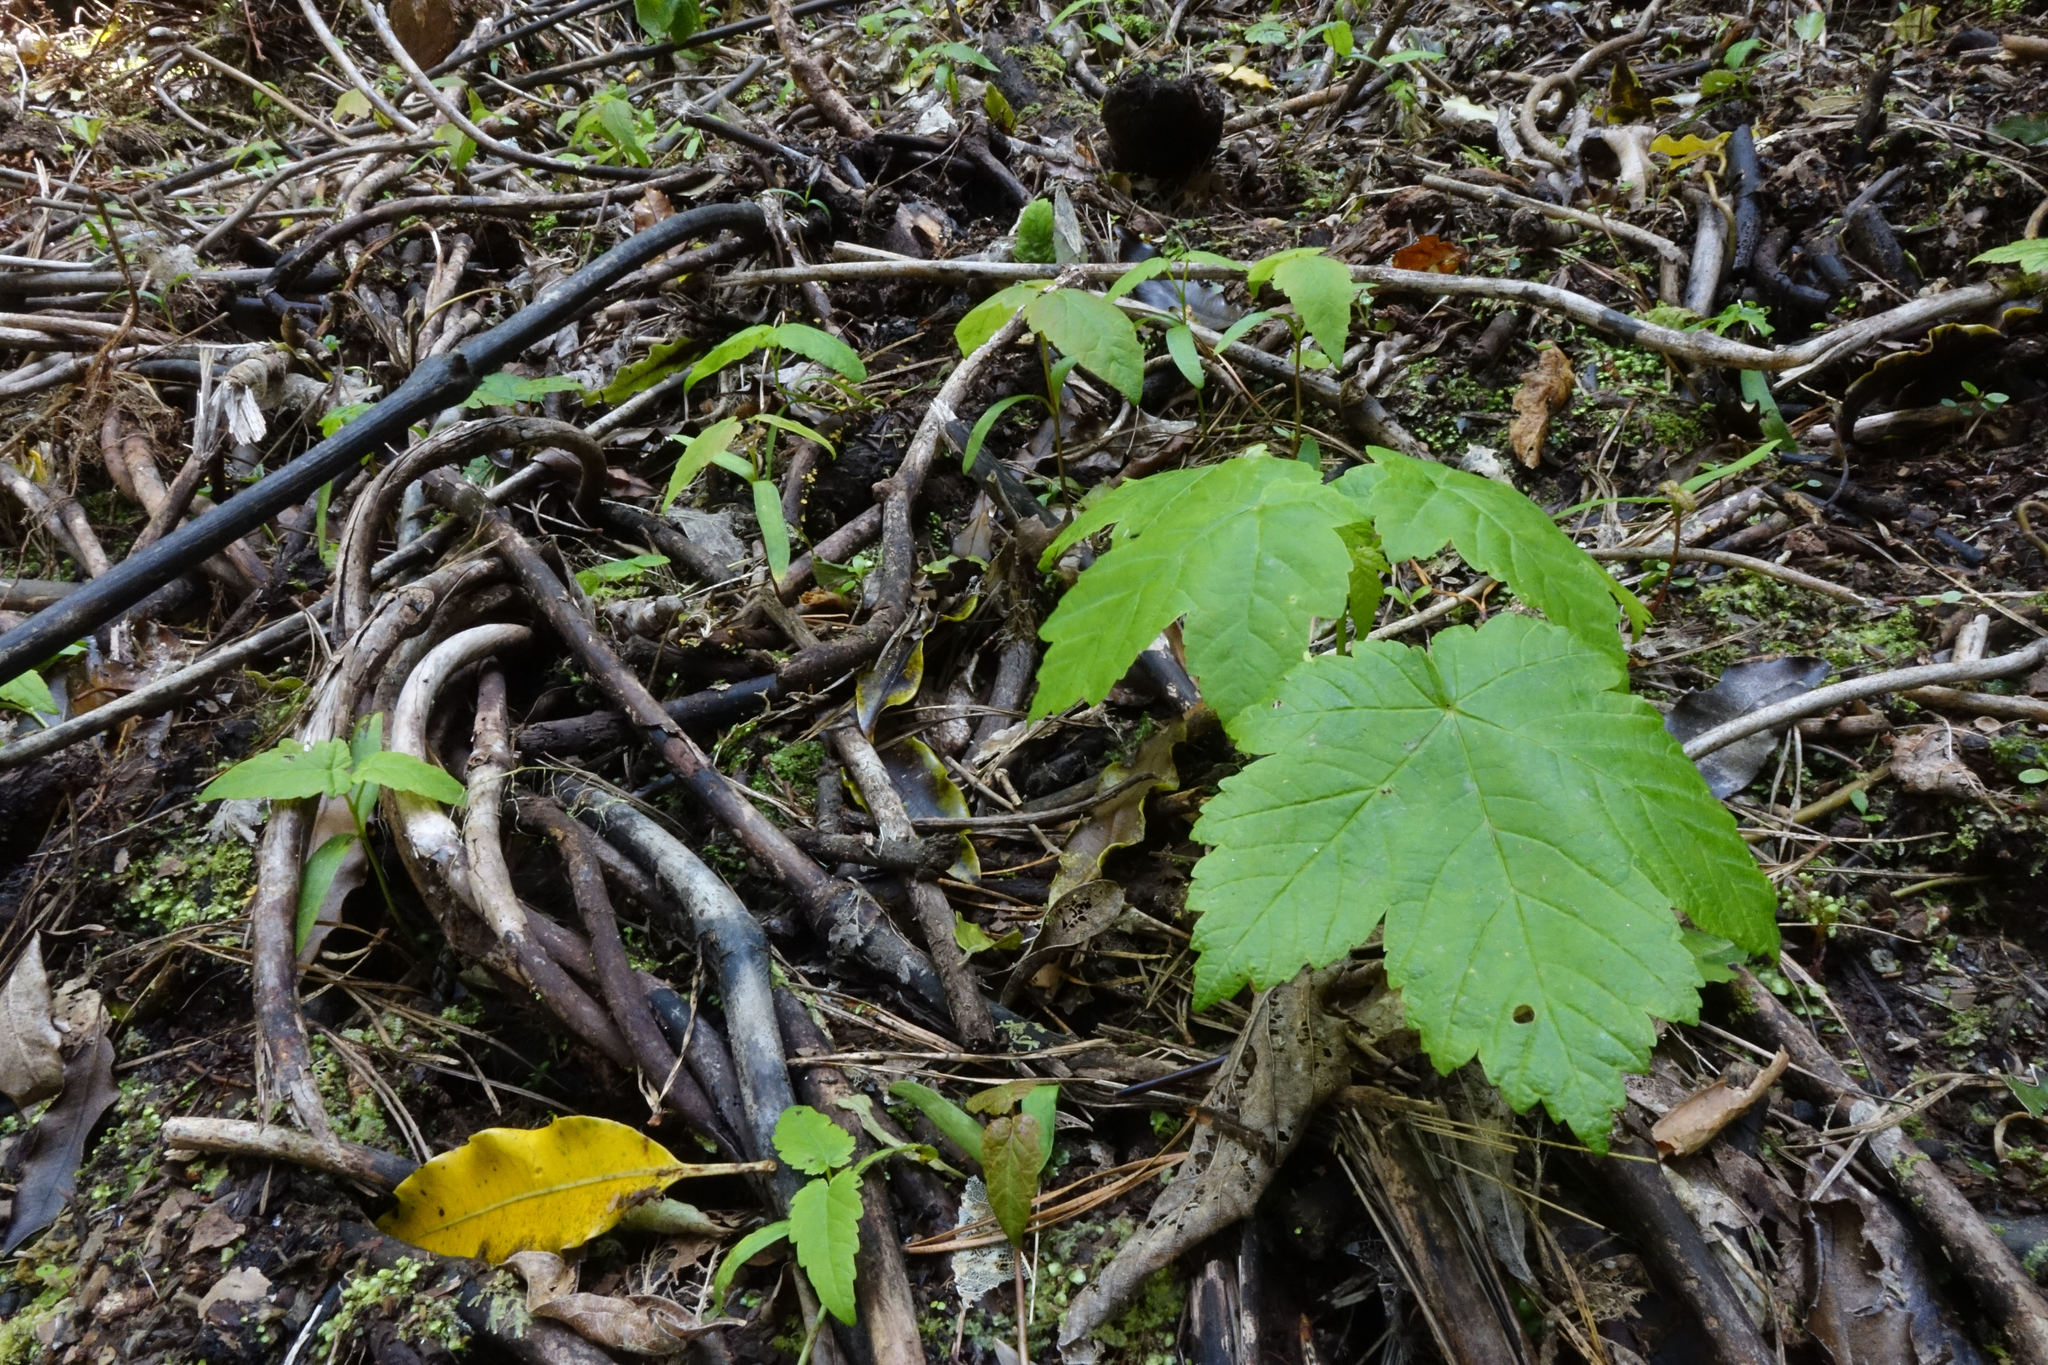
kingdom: Plantae
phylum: Tracheophyta
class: Magnoliopsida
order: Sapindales
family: Sapindaceae
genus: Acer
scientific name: Acer pseudoplatanus
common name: Sycamore
